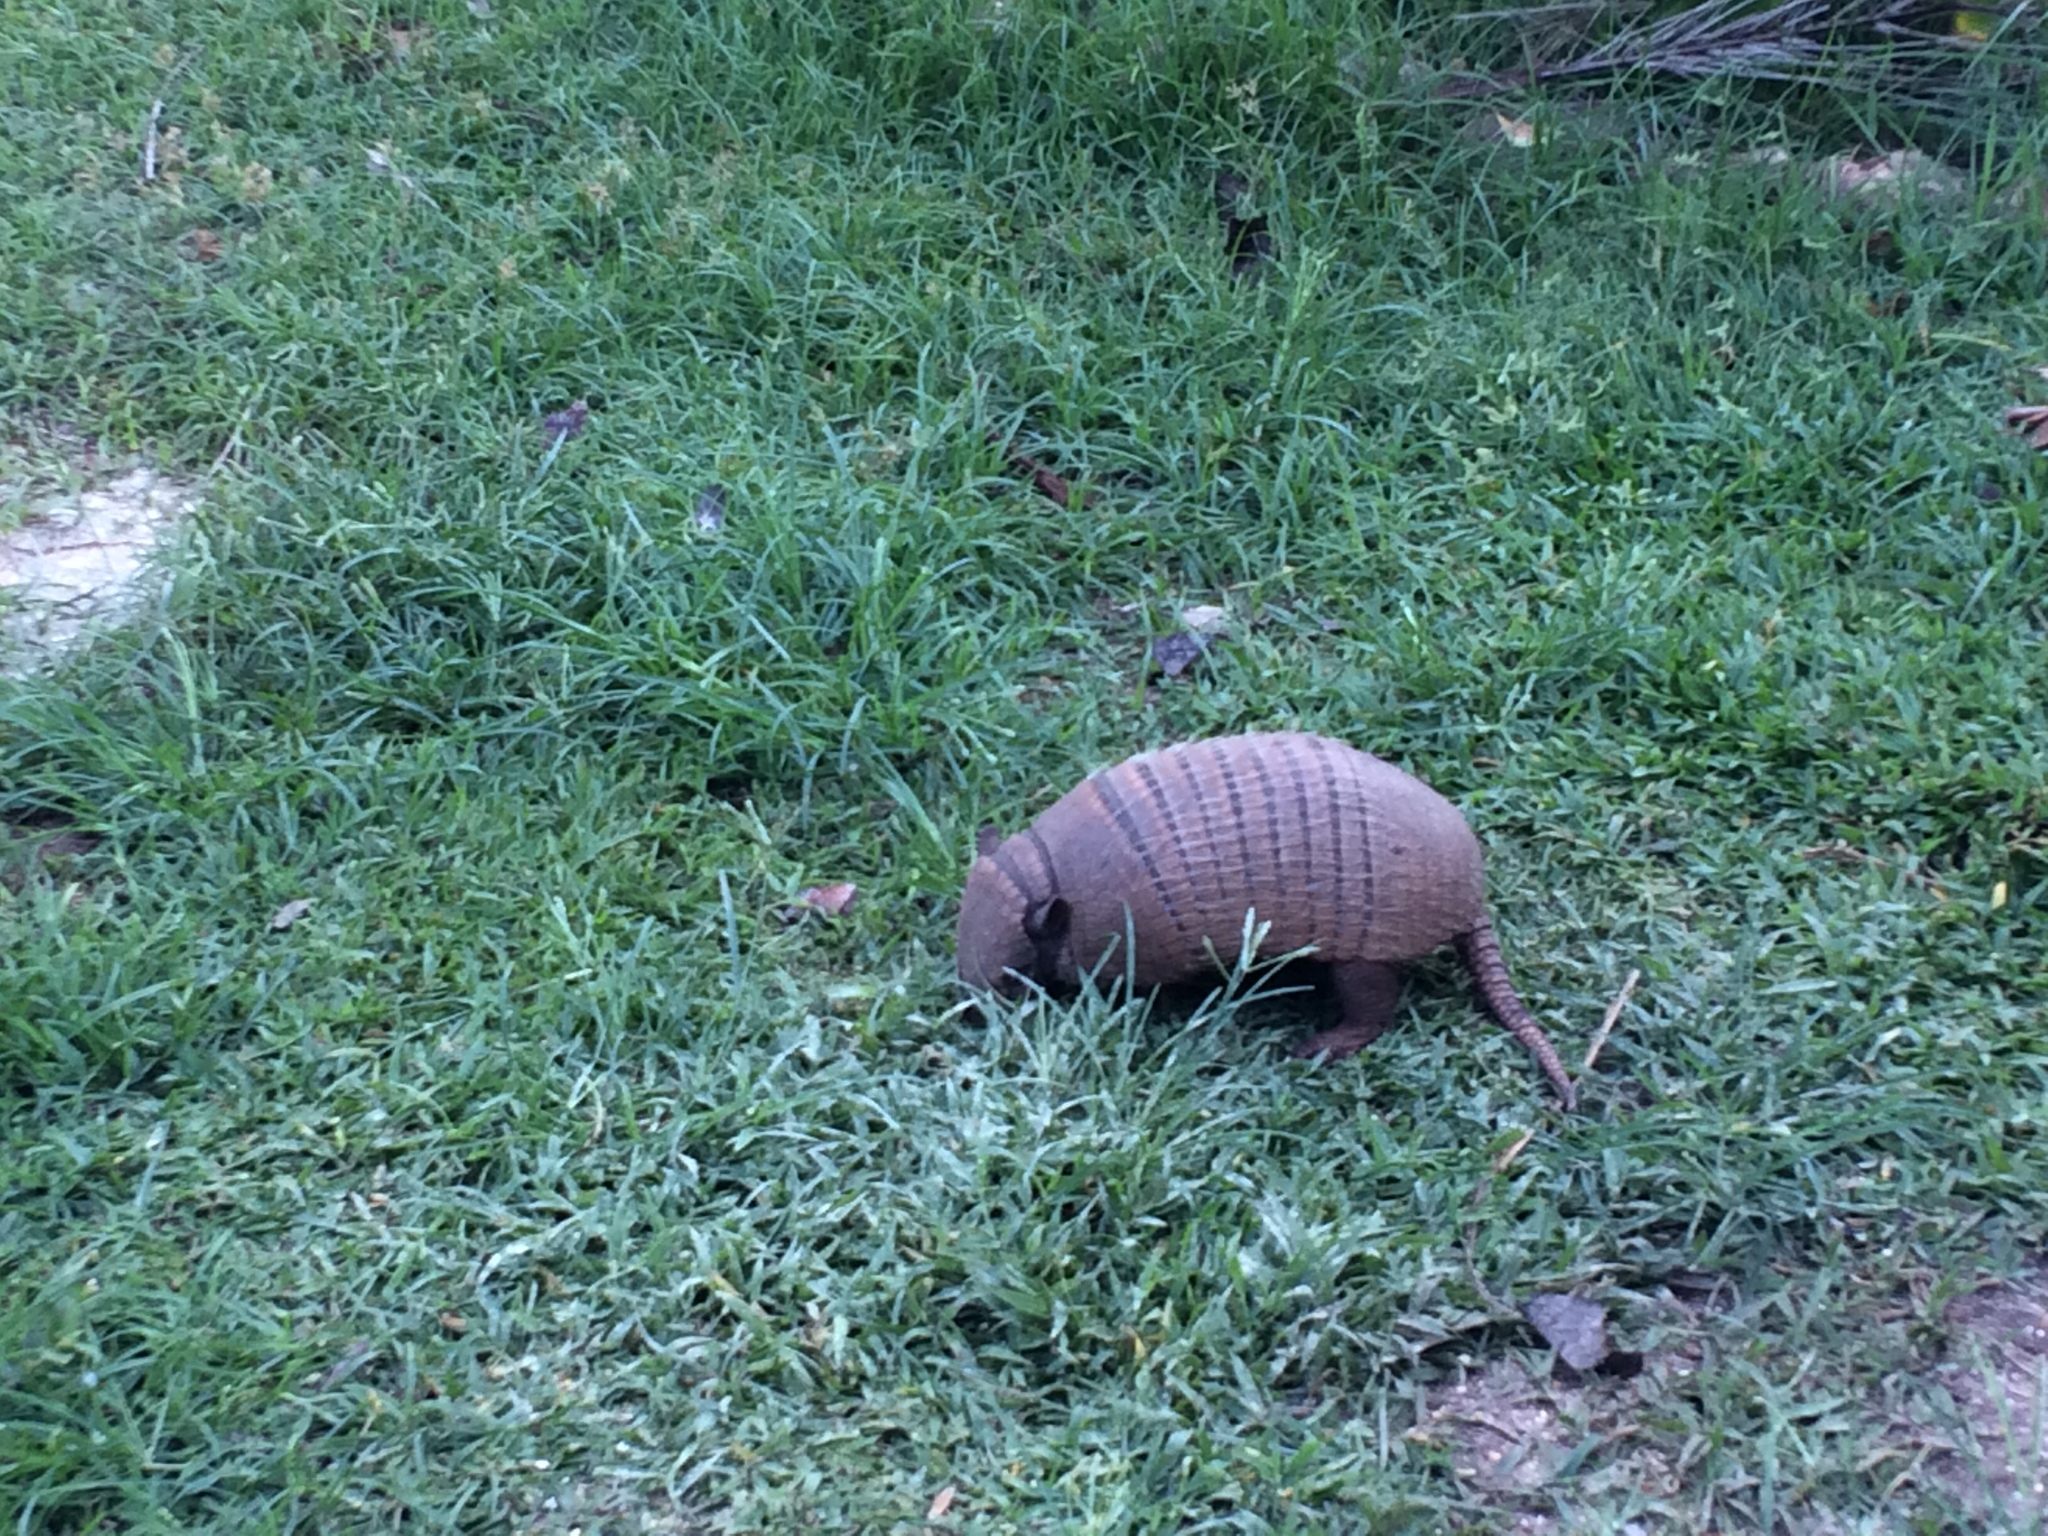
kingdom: Animalia
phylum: Chordata
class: Mammalia
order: Cingulata
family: Dasypodidae
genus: Euphractus
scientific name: Euphractus sexcinctus
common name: Six-banded armadillo
